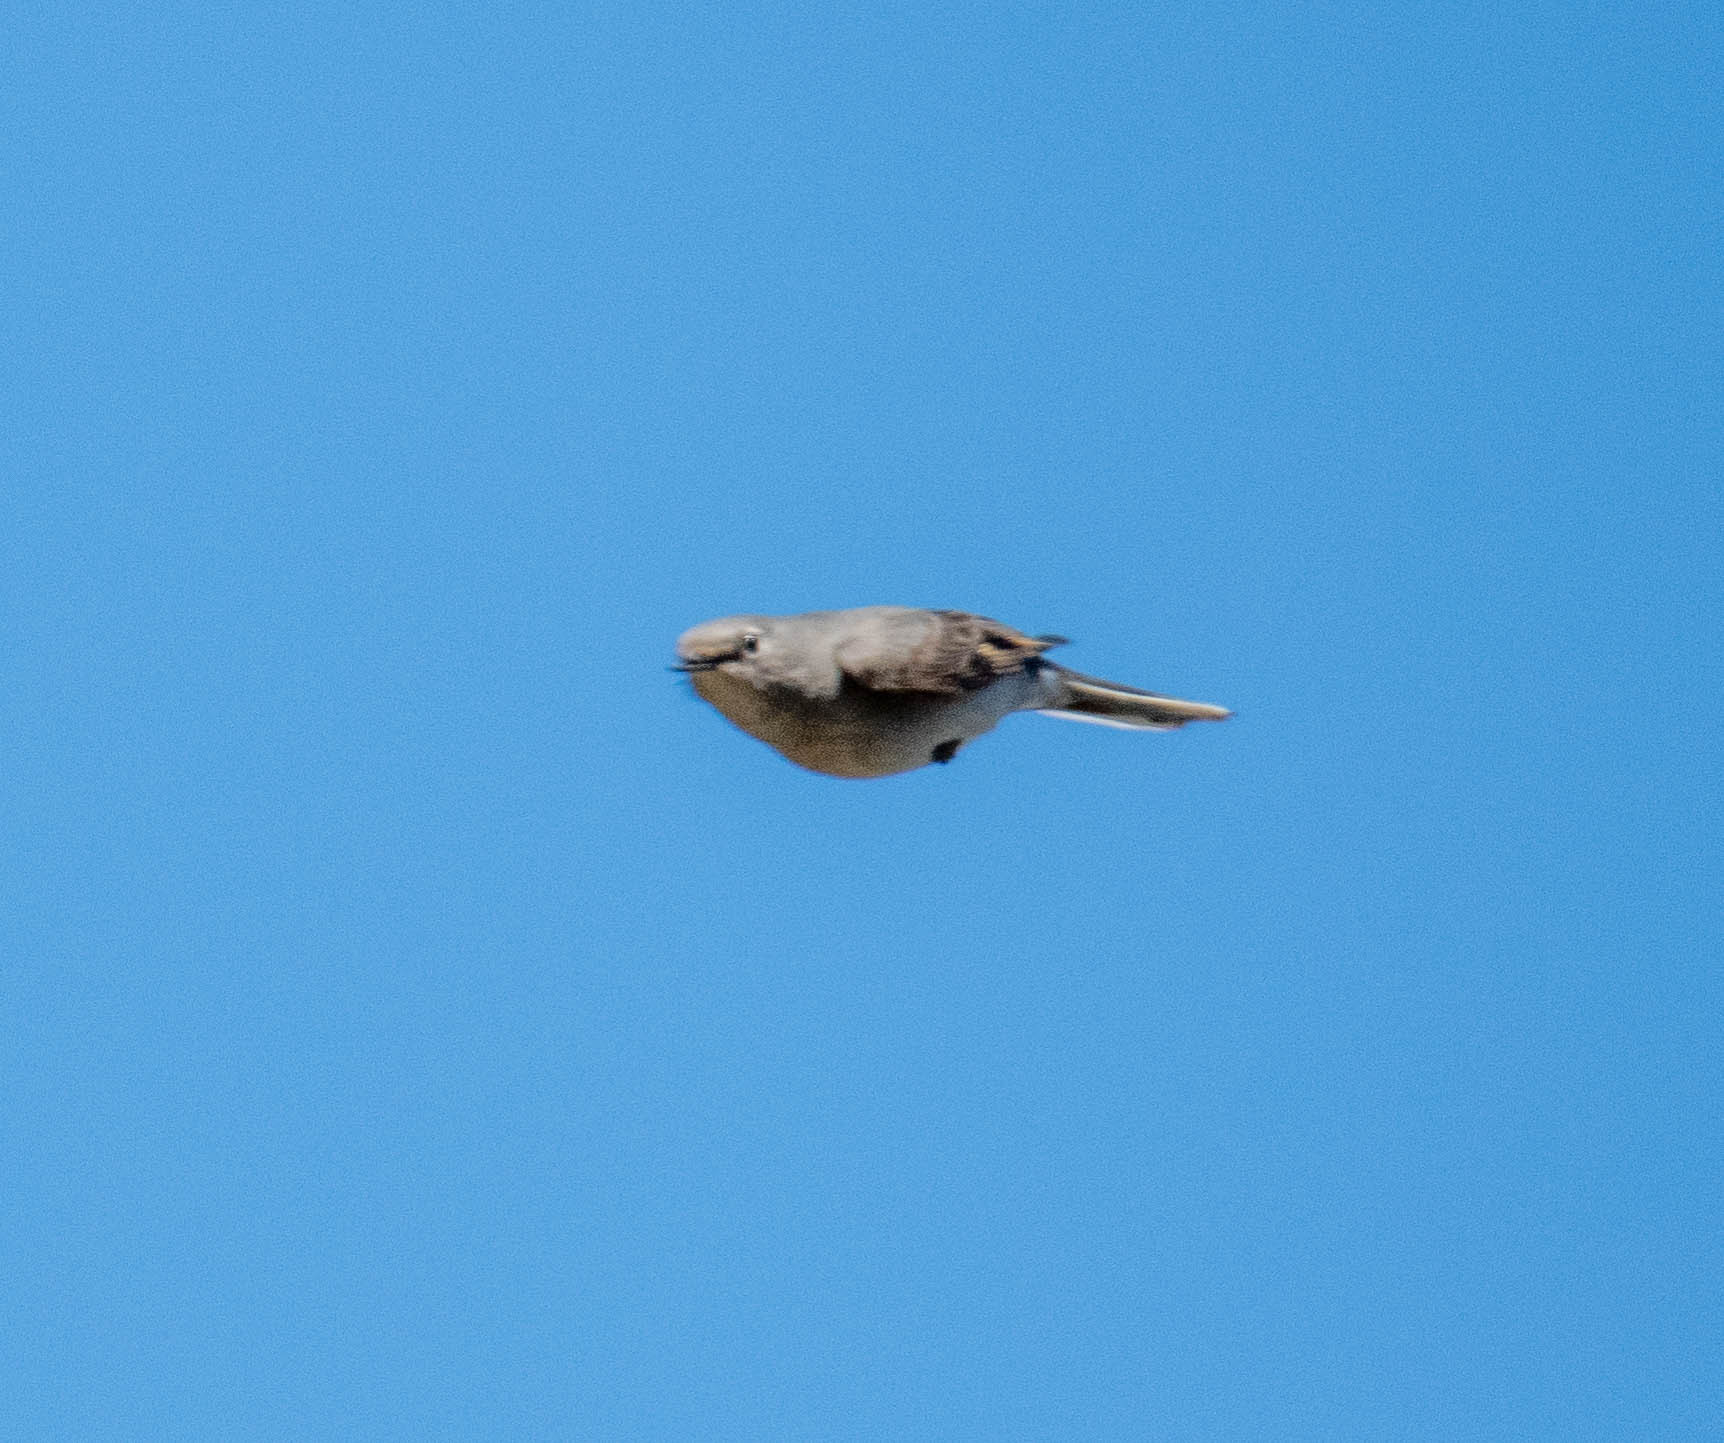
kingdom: Animalia
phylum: Chordata
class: Aves
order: Passeriformes
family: Turdidae
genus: Myadestes
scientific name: Myadestes townsendi
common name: Townsend's solitaire
